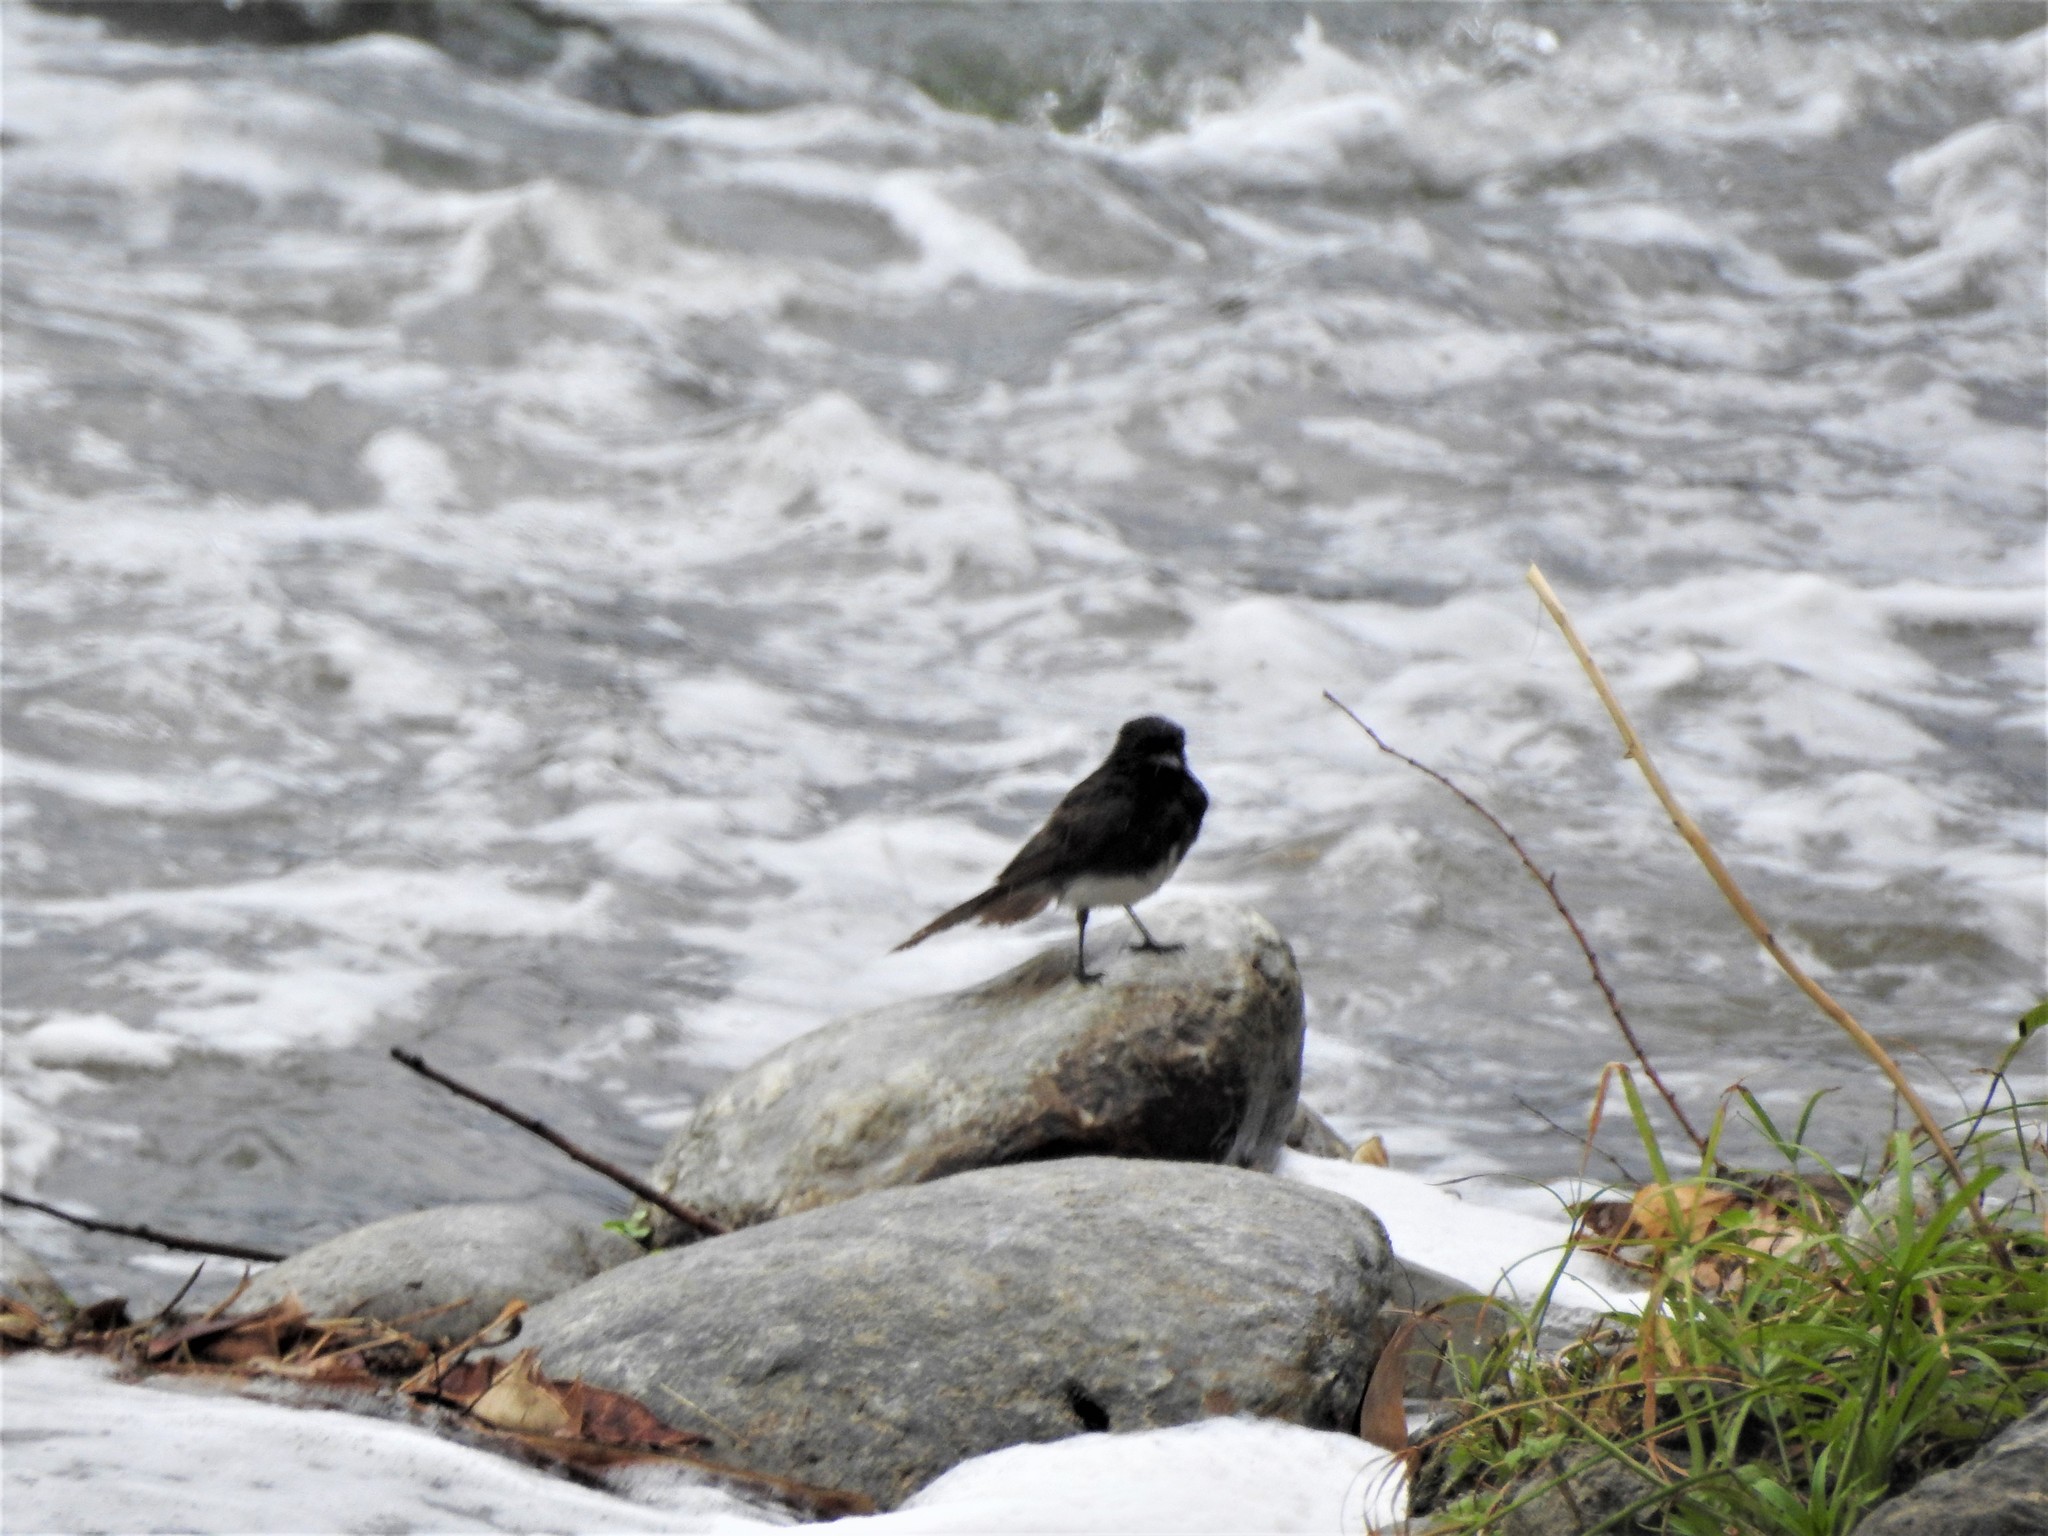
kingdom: Animalia
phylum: Chordata
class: Aves
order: Passeriformes
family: Tyrannidae
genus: Sayornis
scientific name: Sayornis nigricans
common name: Black phoebe
